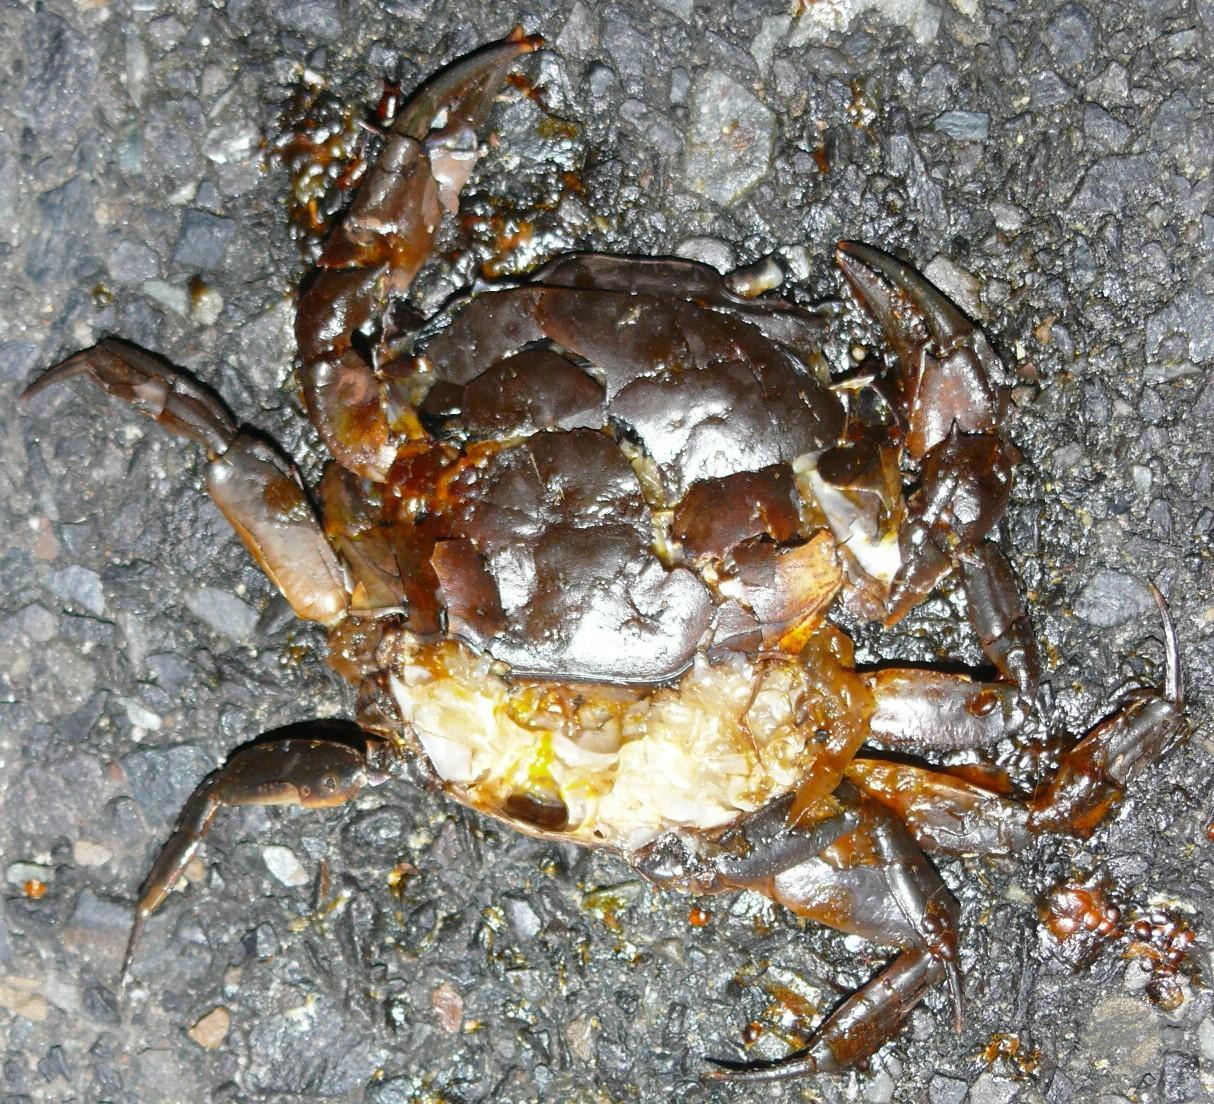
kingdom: Animalia
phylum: Arthropoda
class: Malacostraca
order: Decapoda
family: Potamonautidae
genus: Potamonautes
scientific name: Potamonautes perlatus
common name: Cape river crab
